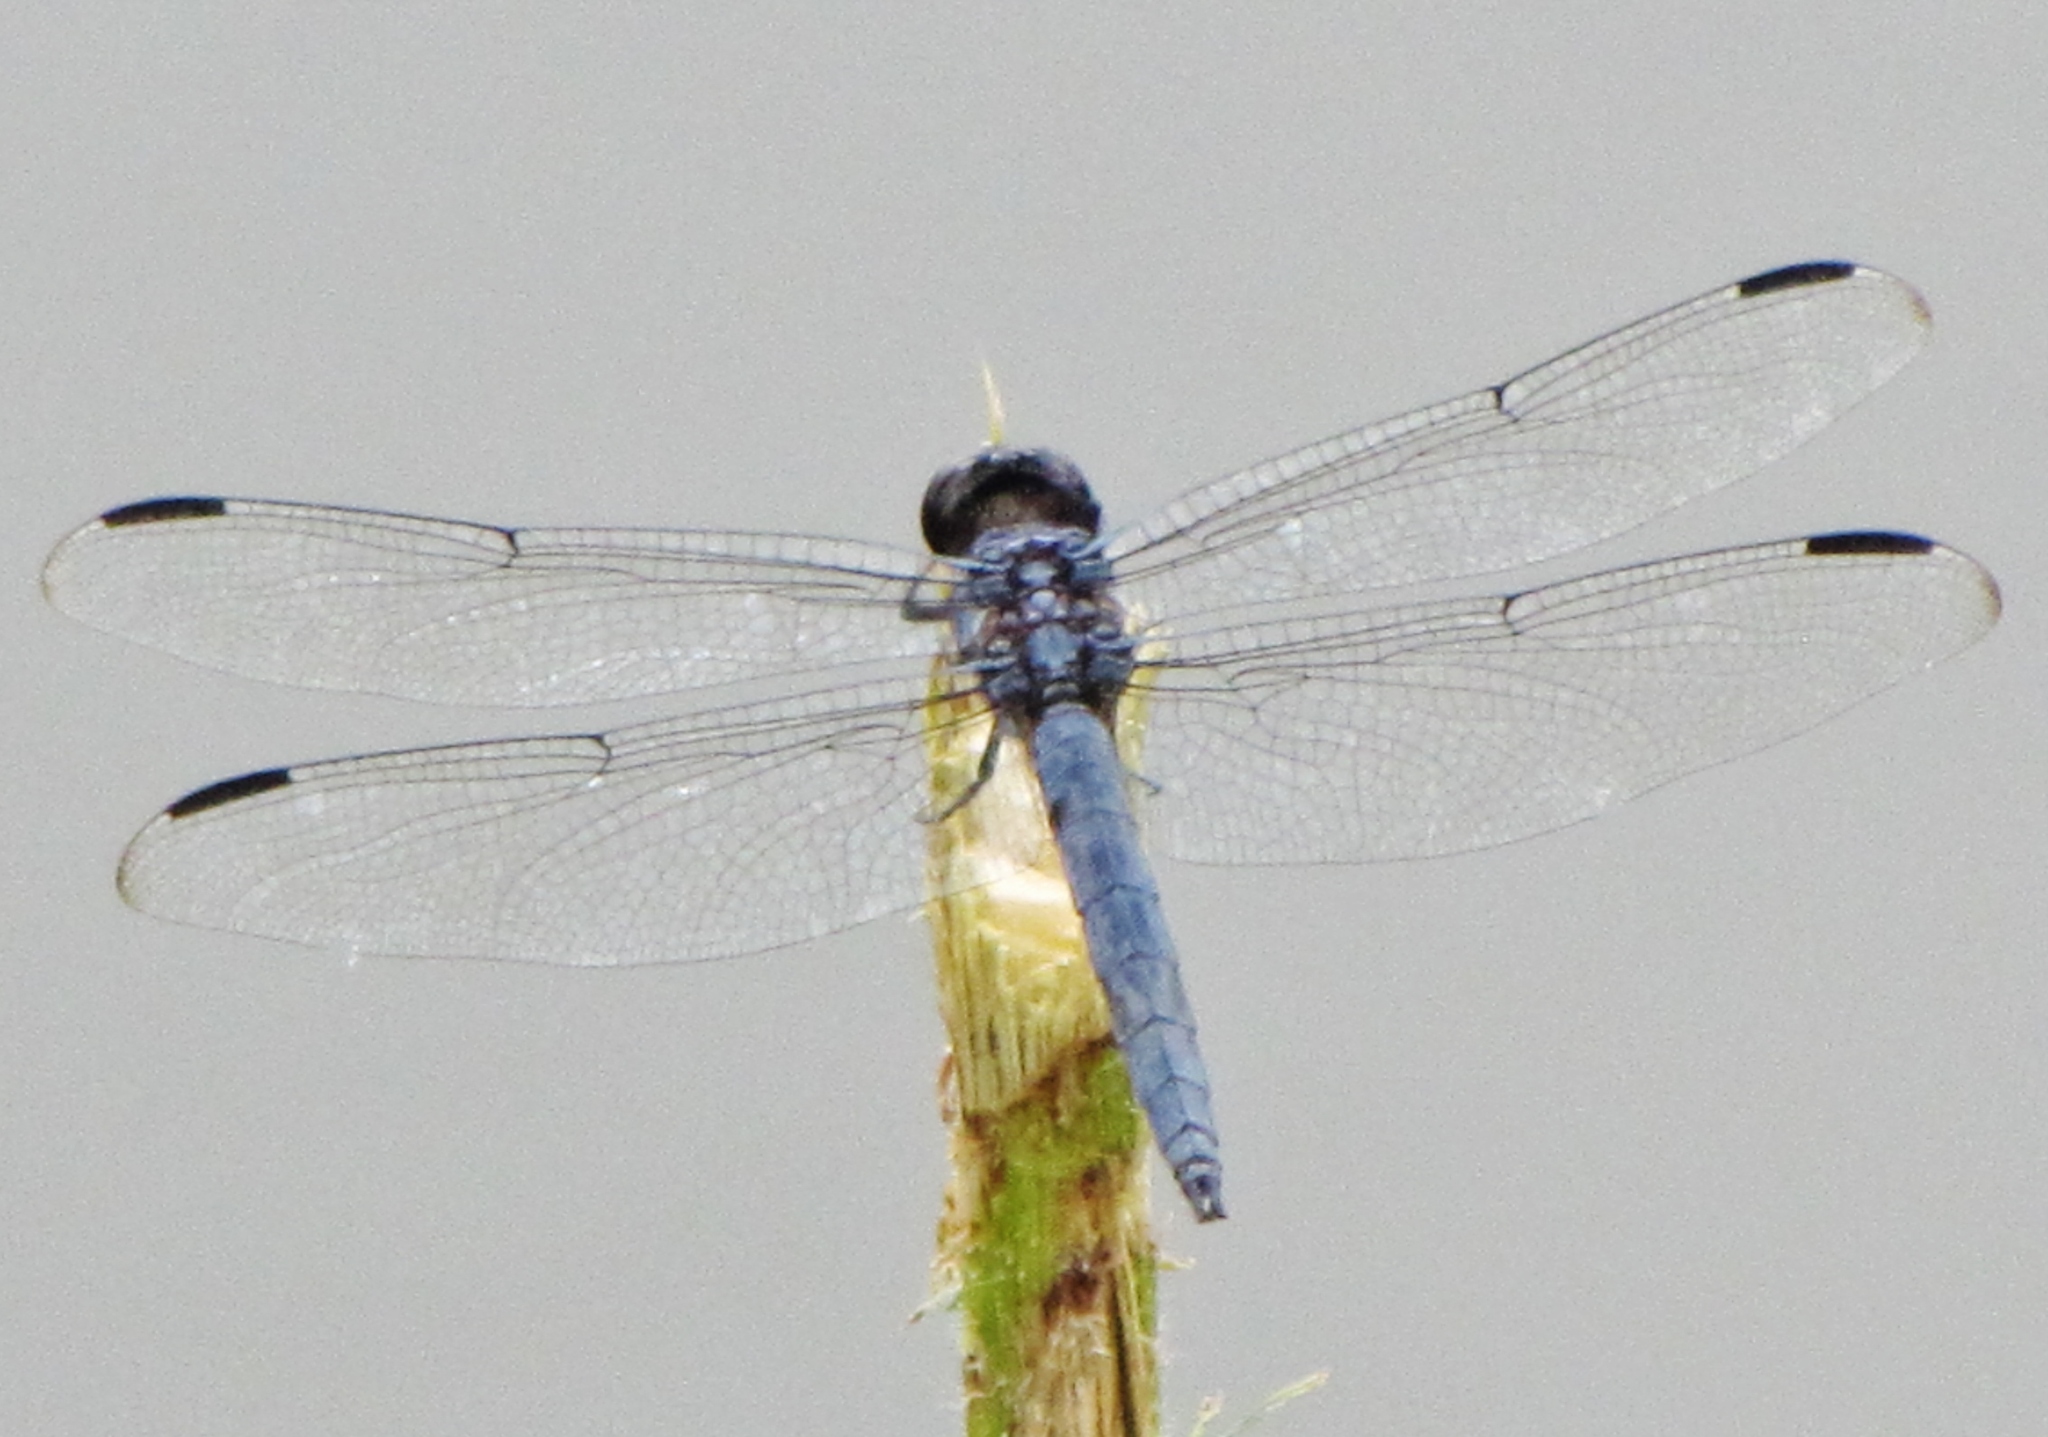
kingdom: Animalia
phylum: Arthropoda
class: Insecta
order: Odonata
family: Libellulidae
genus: Libellula
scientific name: Libellula incesta
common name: Slaty skimmer
